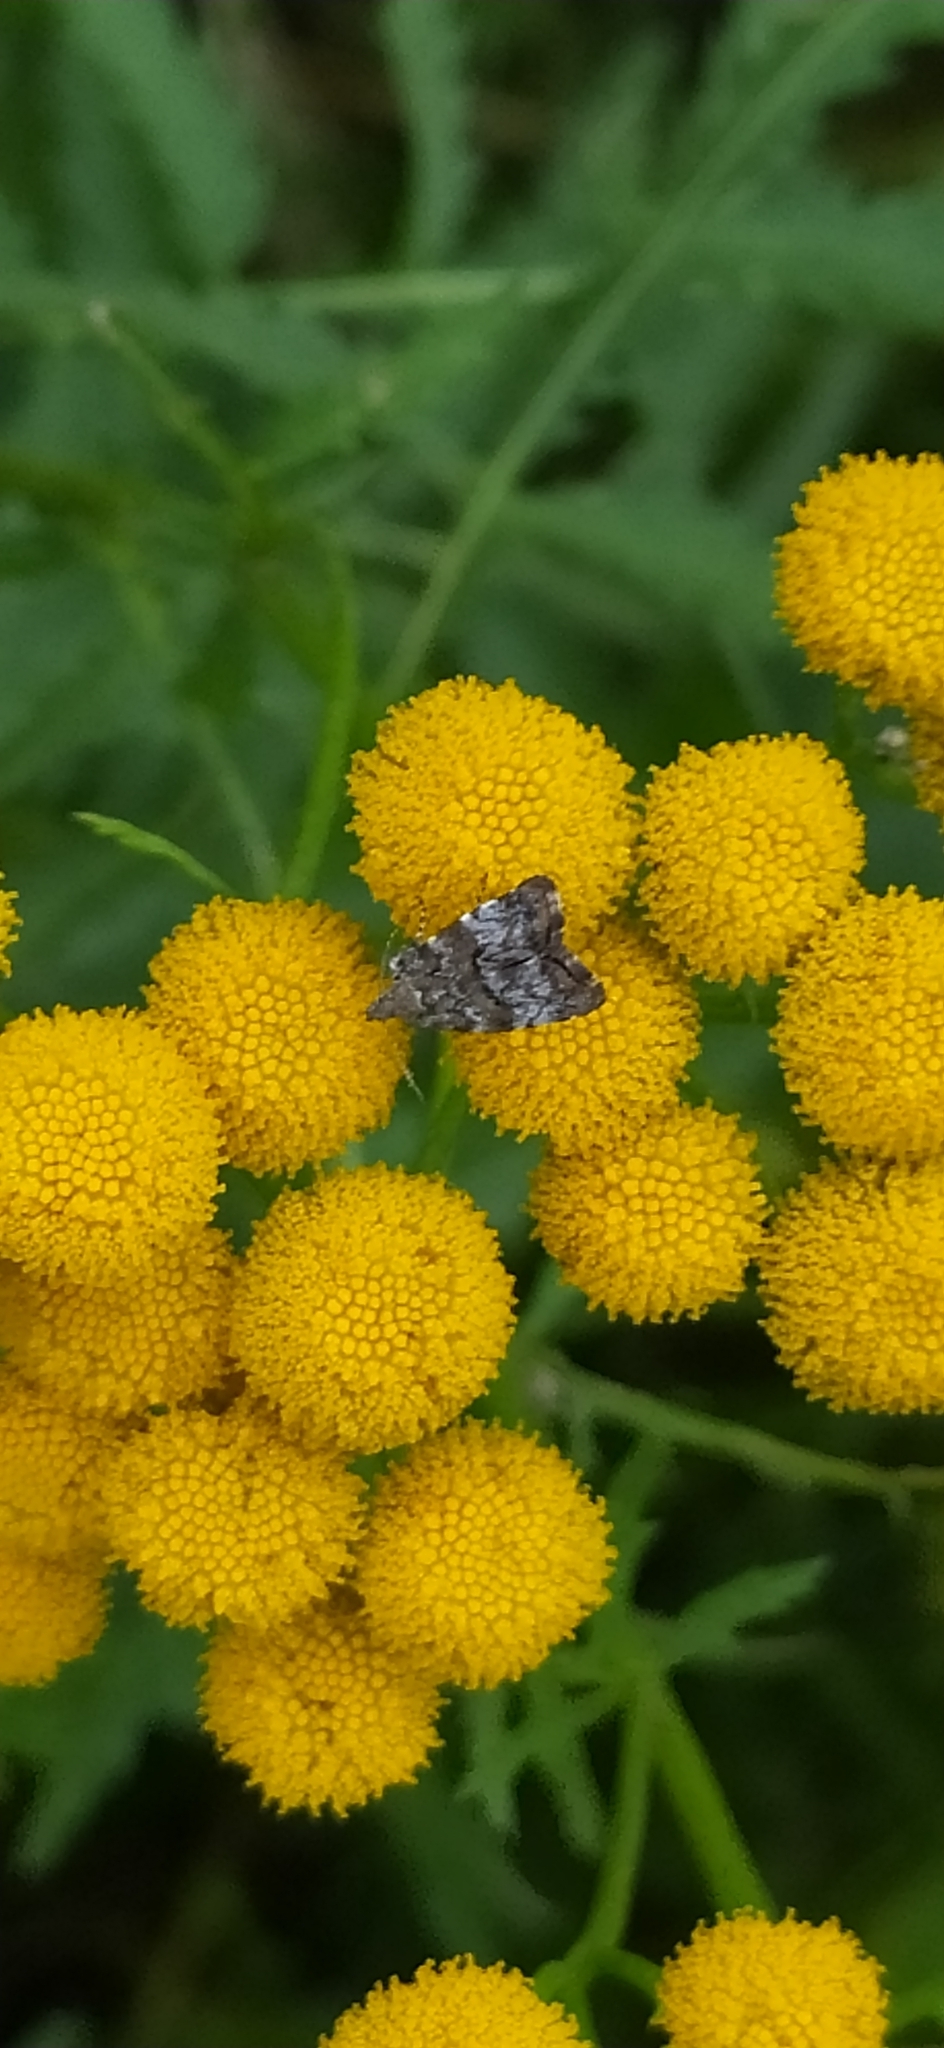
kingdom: Animalia
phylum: Arthropoda
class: Insecta
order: Lepidoptera
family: Choreutidae
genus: Choreutis
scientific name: Choreutis diana
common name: Inverness twitcher
